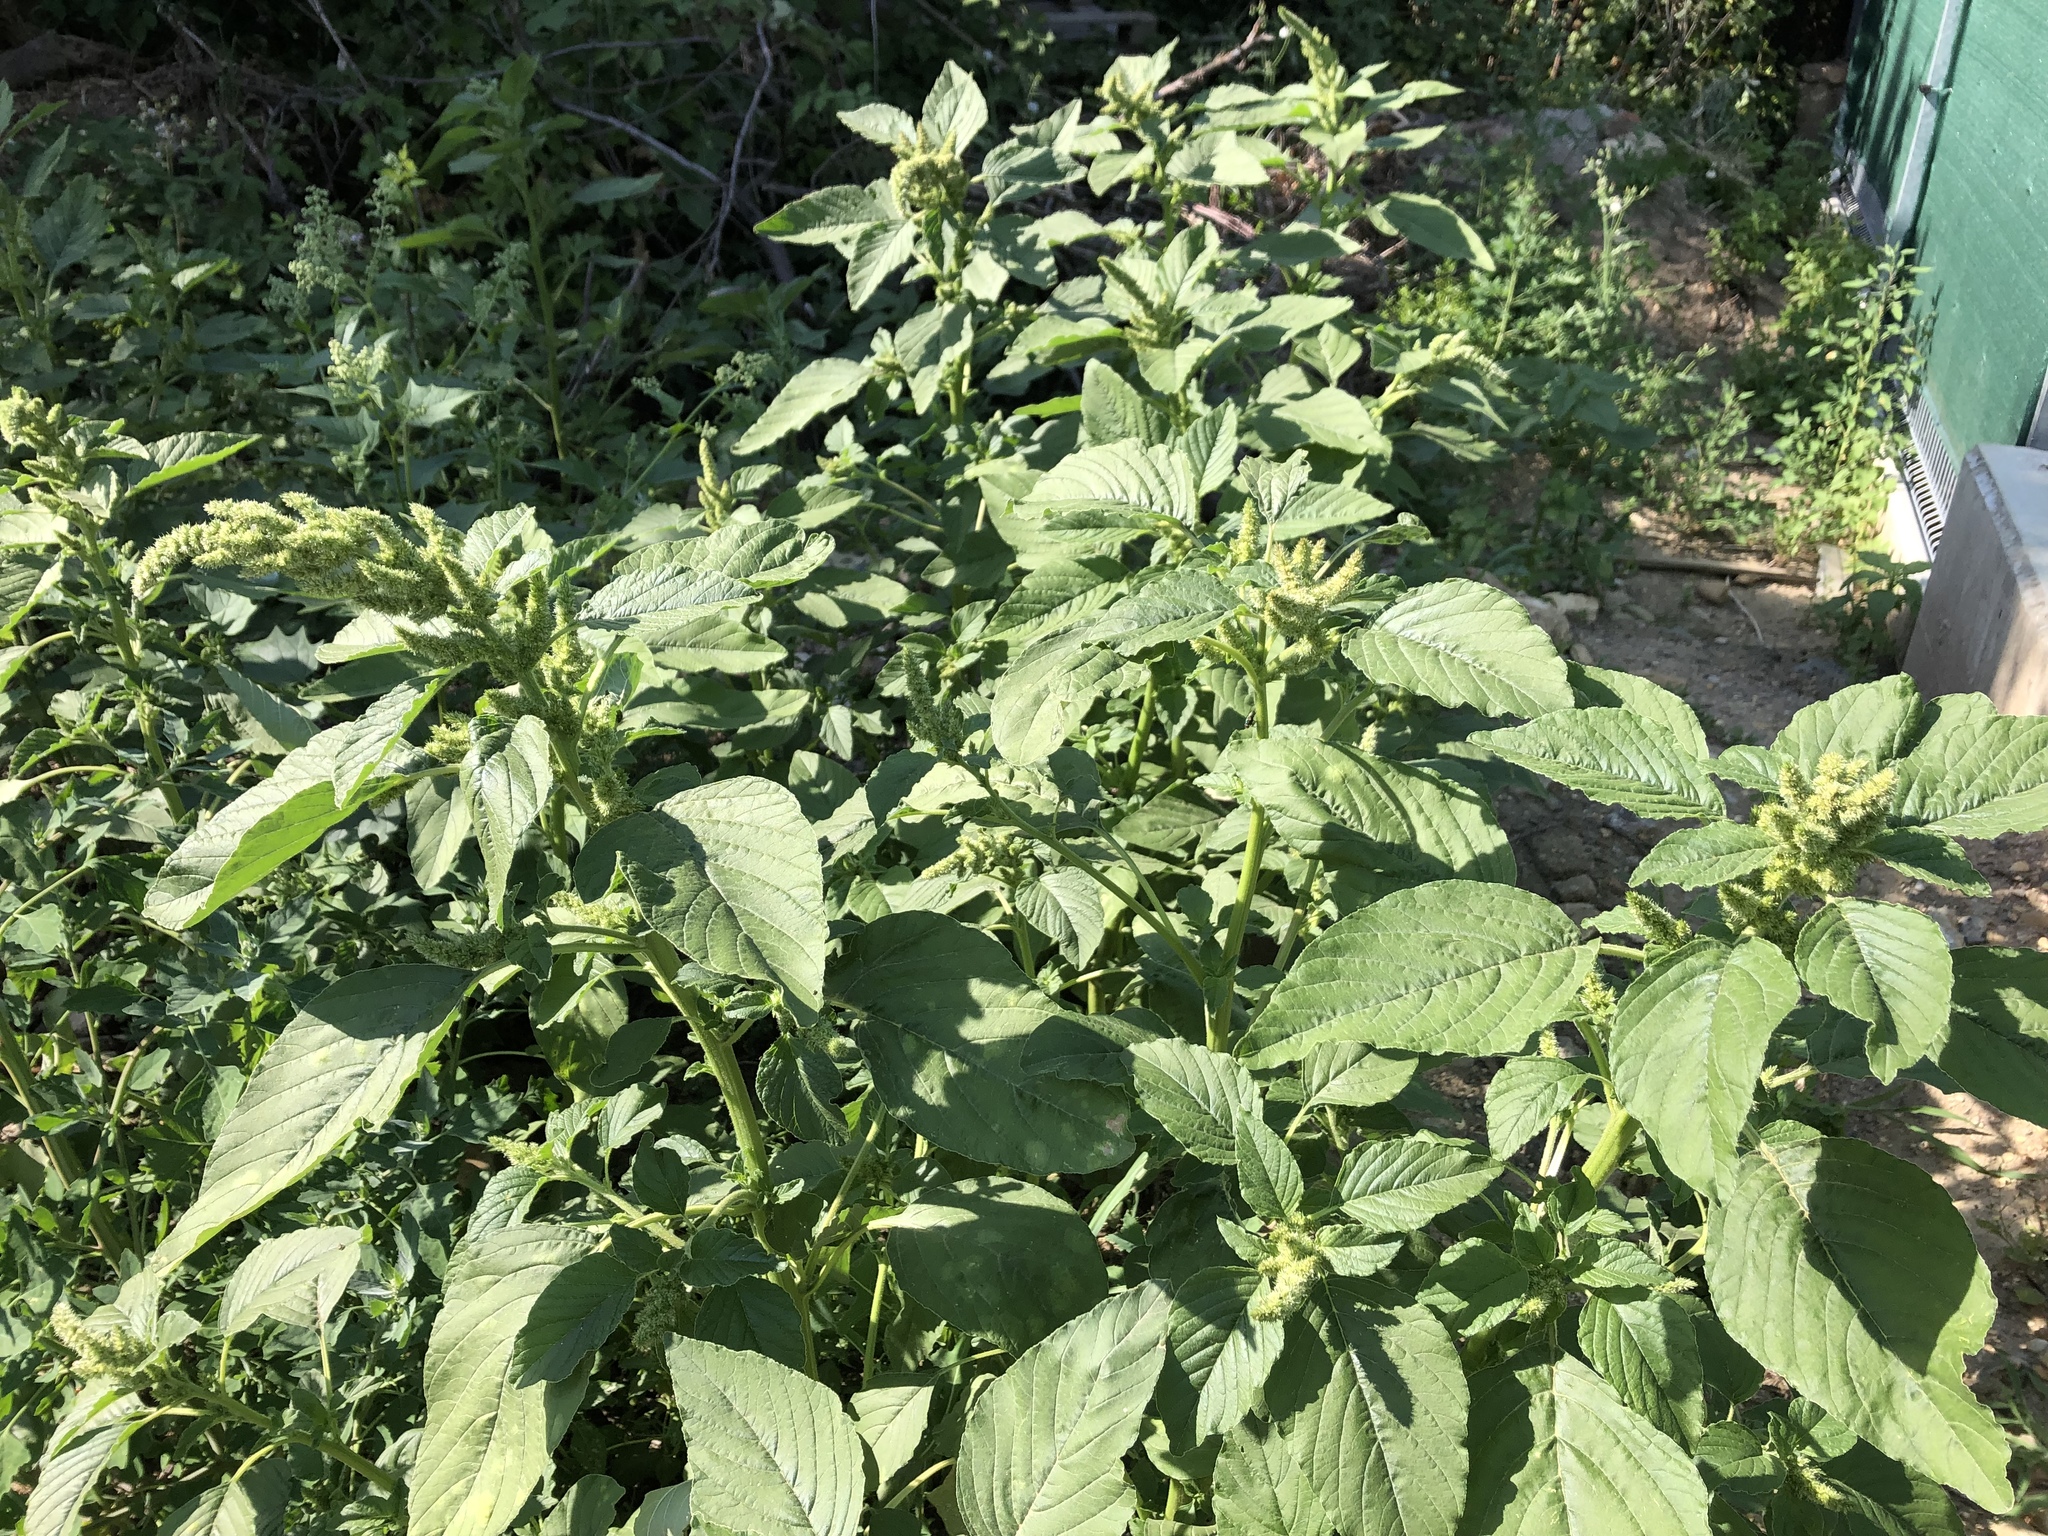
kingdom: Plantae
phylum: Tracheophyta
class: Magnoliopsida
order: Caryophyllales
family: Amaranthaceae
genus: Amaranthus
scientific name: Amaranthus retroflexus
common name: Redroot amaranth
